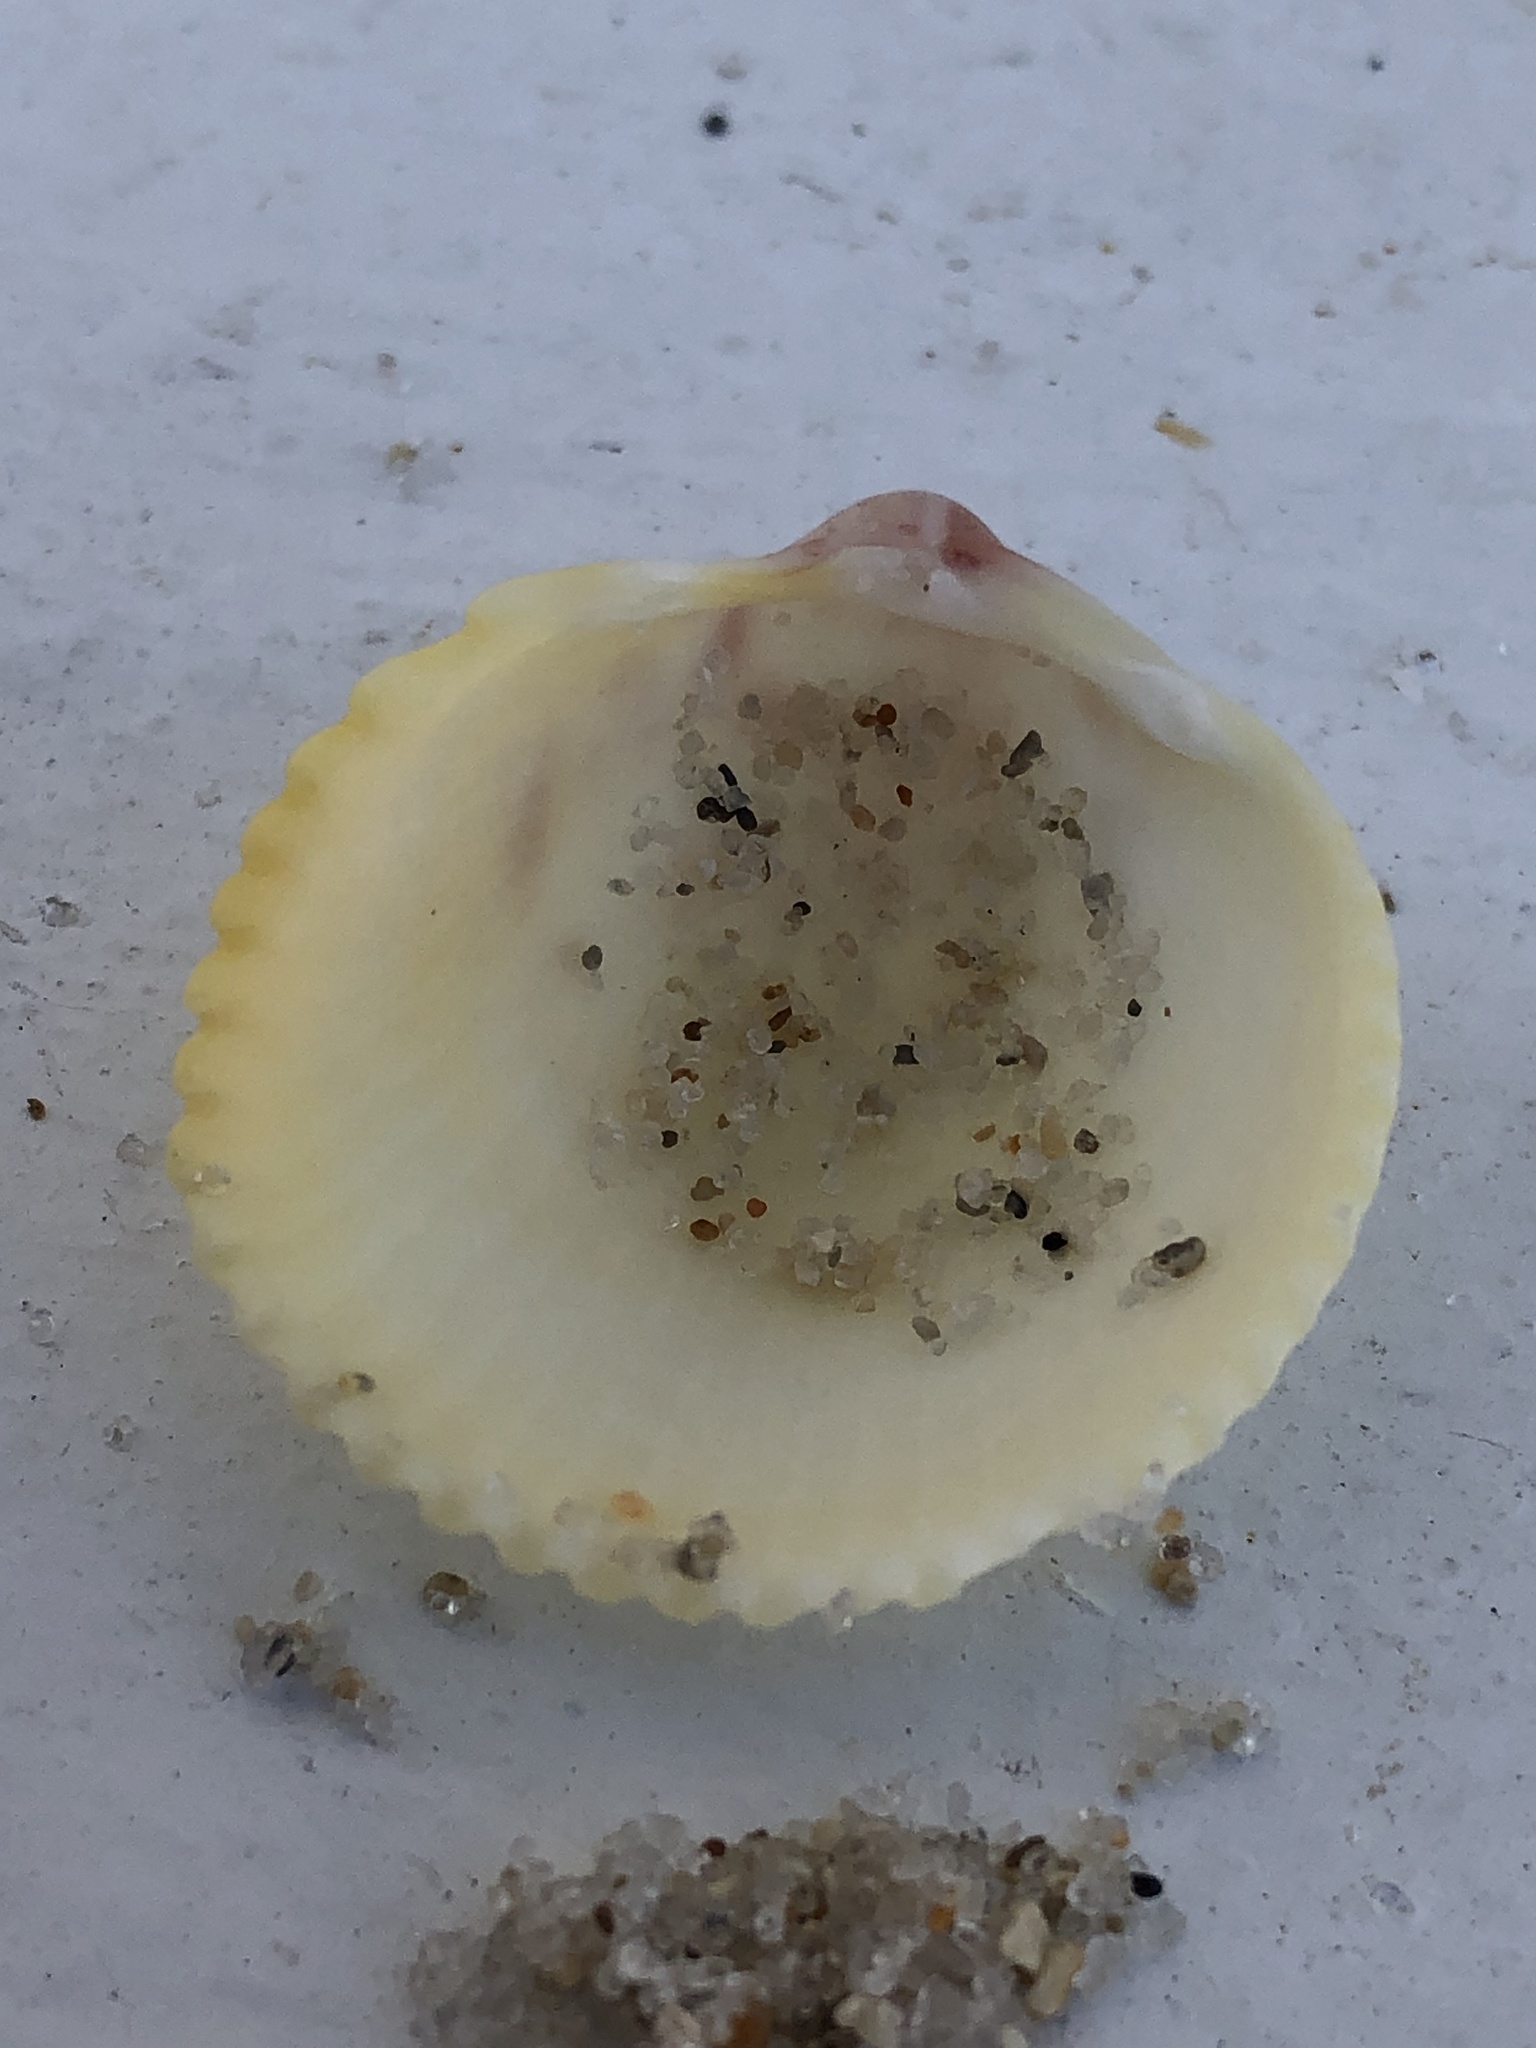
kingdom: Animalia
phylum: Mollusca
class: Bivalvia
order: Cardiida
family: Cardiidae
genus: Dallocardia
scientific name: Dallocardia muricata
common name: Yellow pricklycockle
